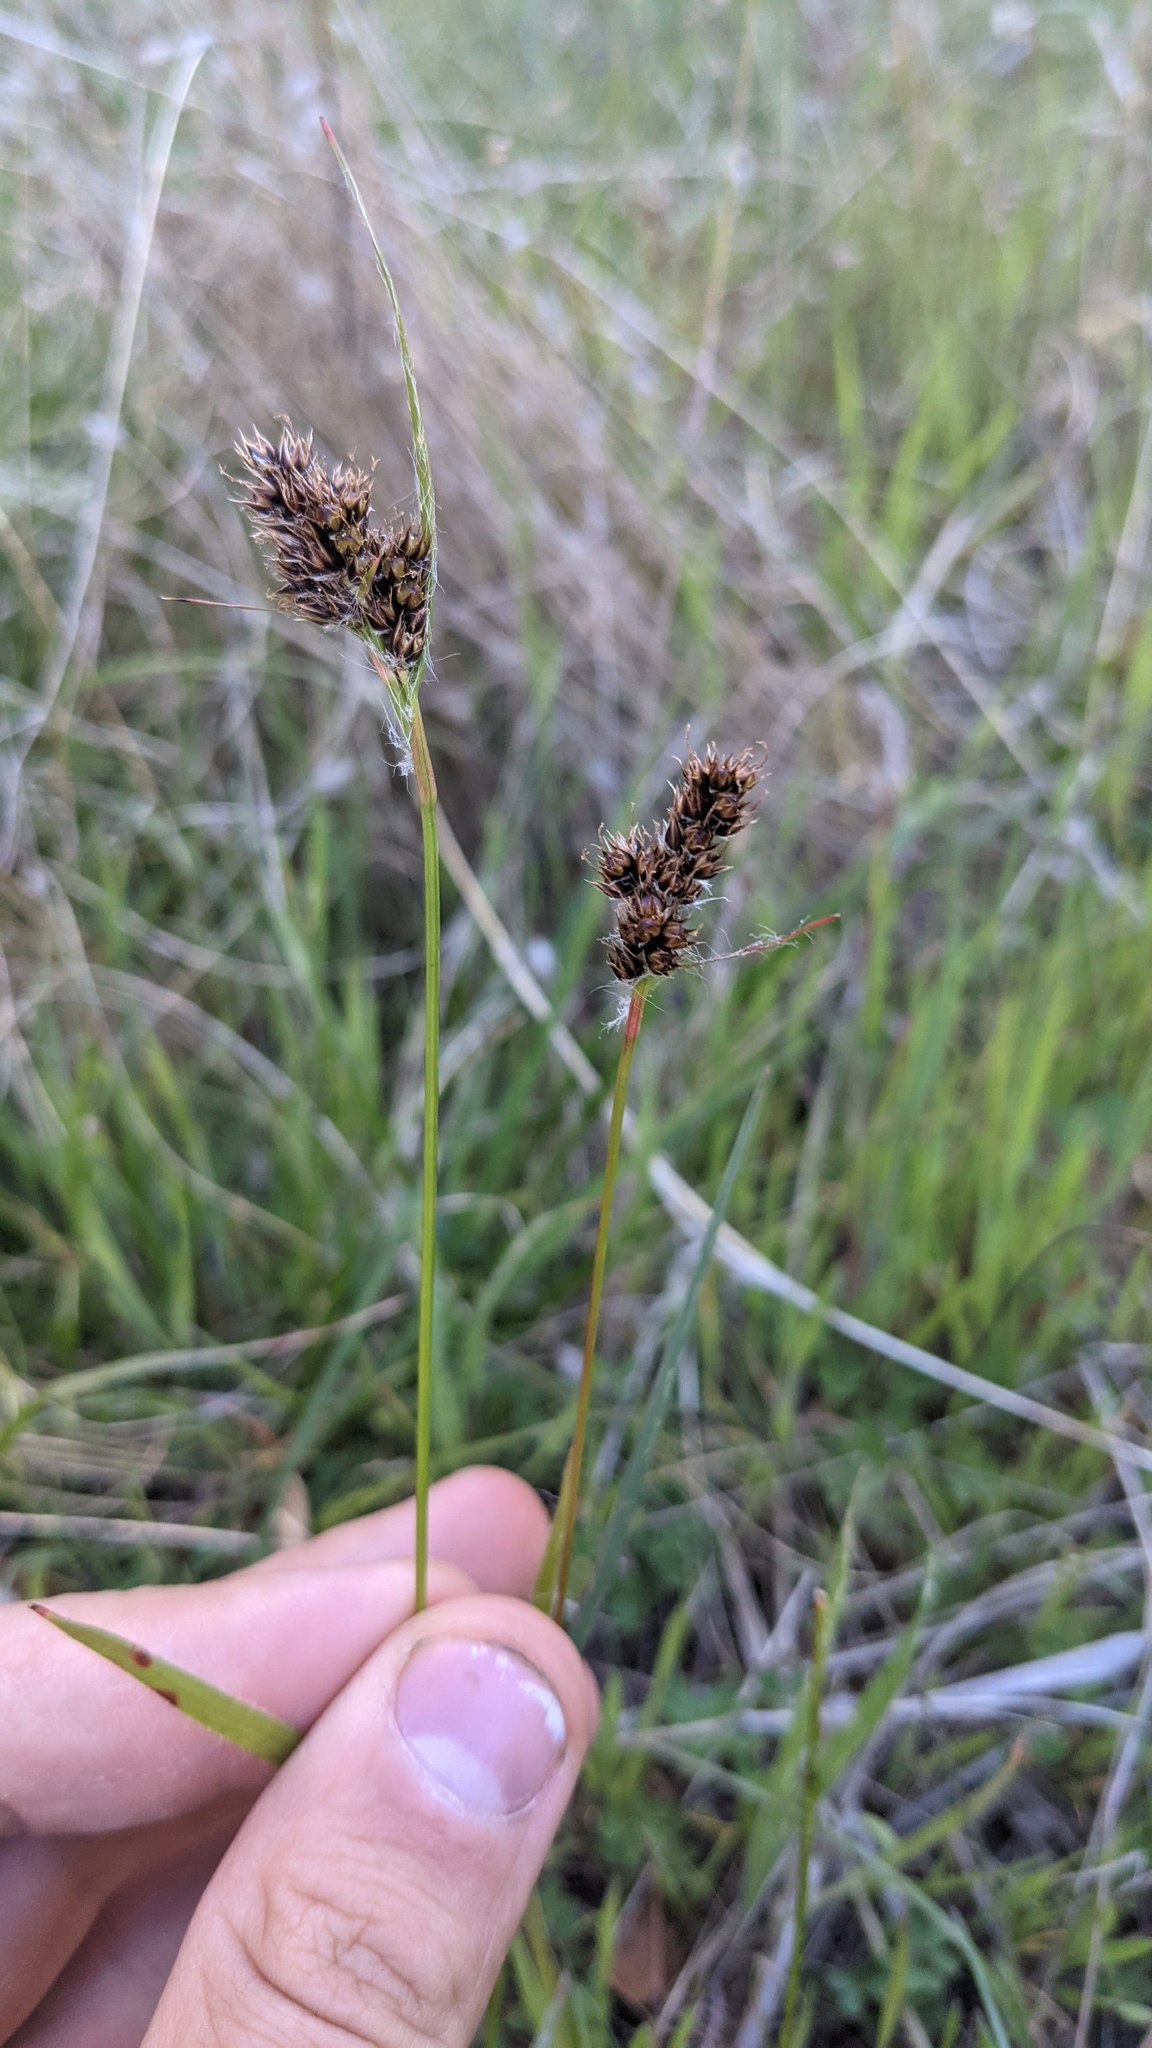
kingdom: Plantae
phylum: Tracheophyta
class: Liliopsida
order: Poales
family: Juncaceae
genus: Luzula
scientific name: Luzula macrantha
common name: Large-anthered woodrush
